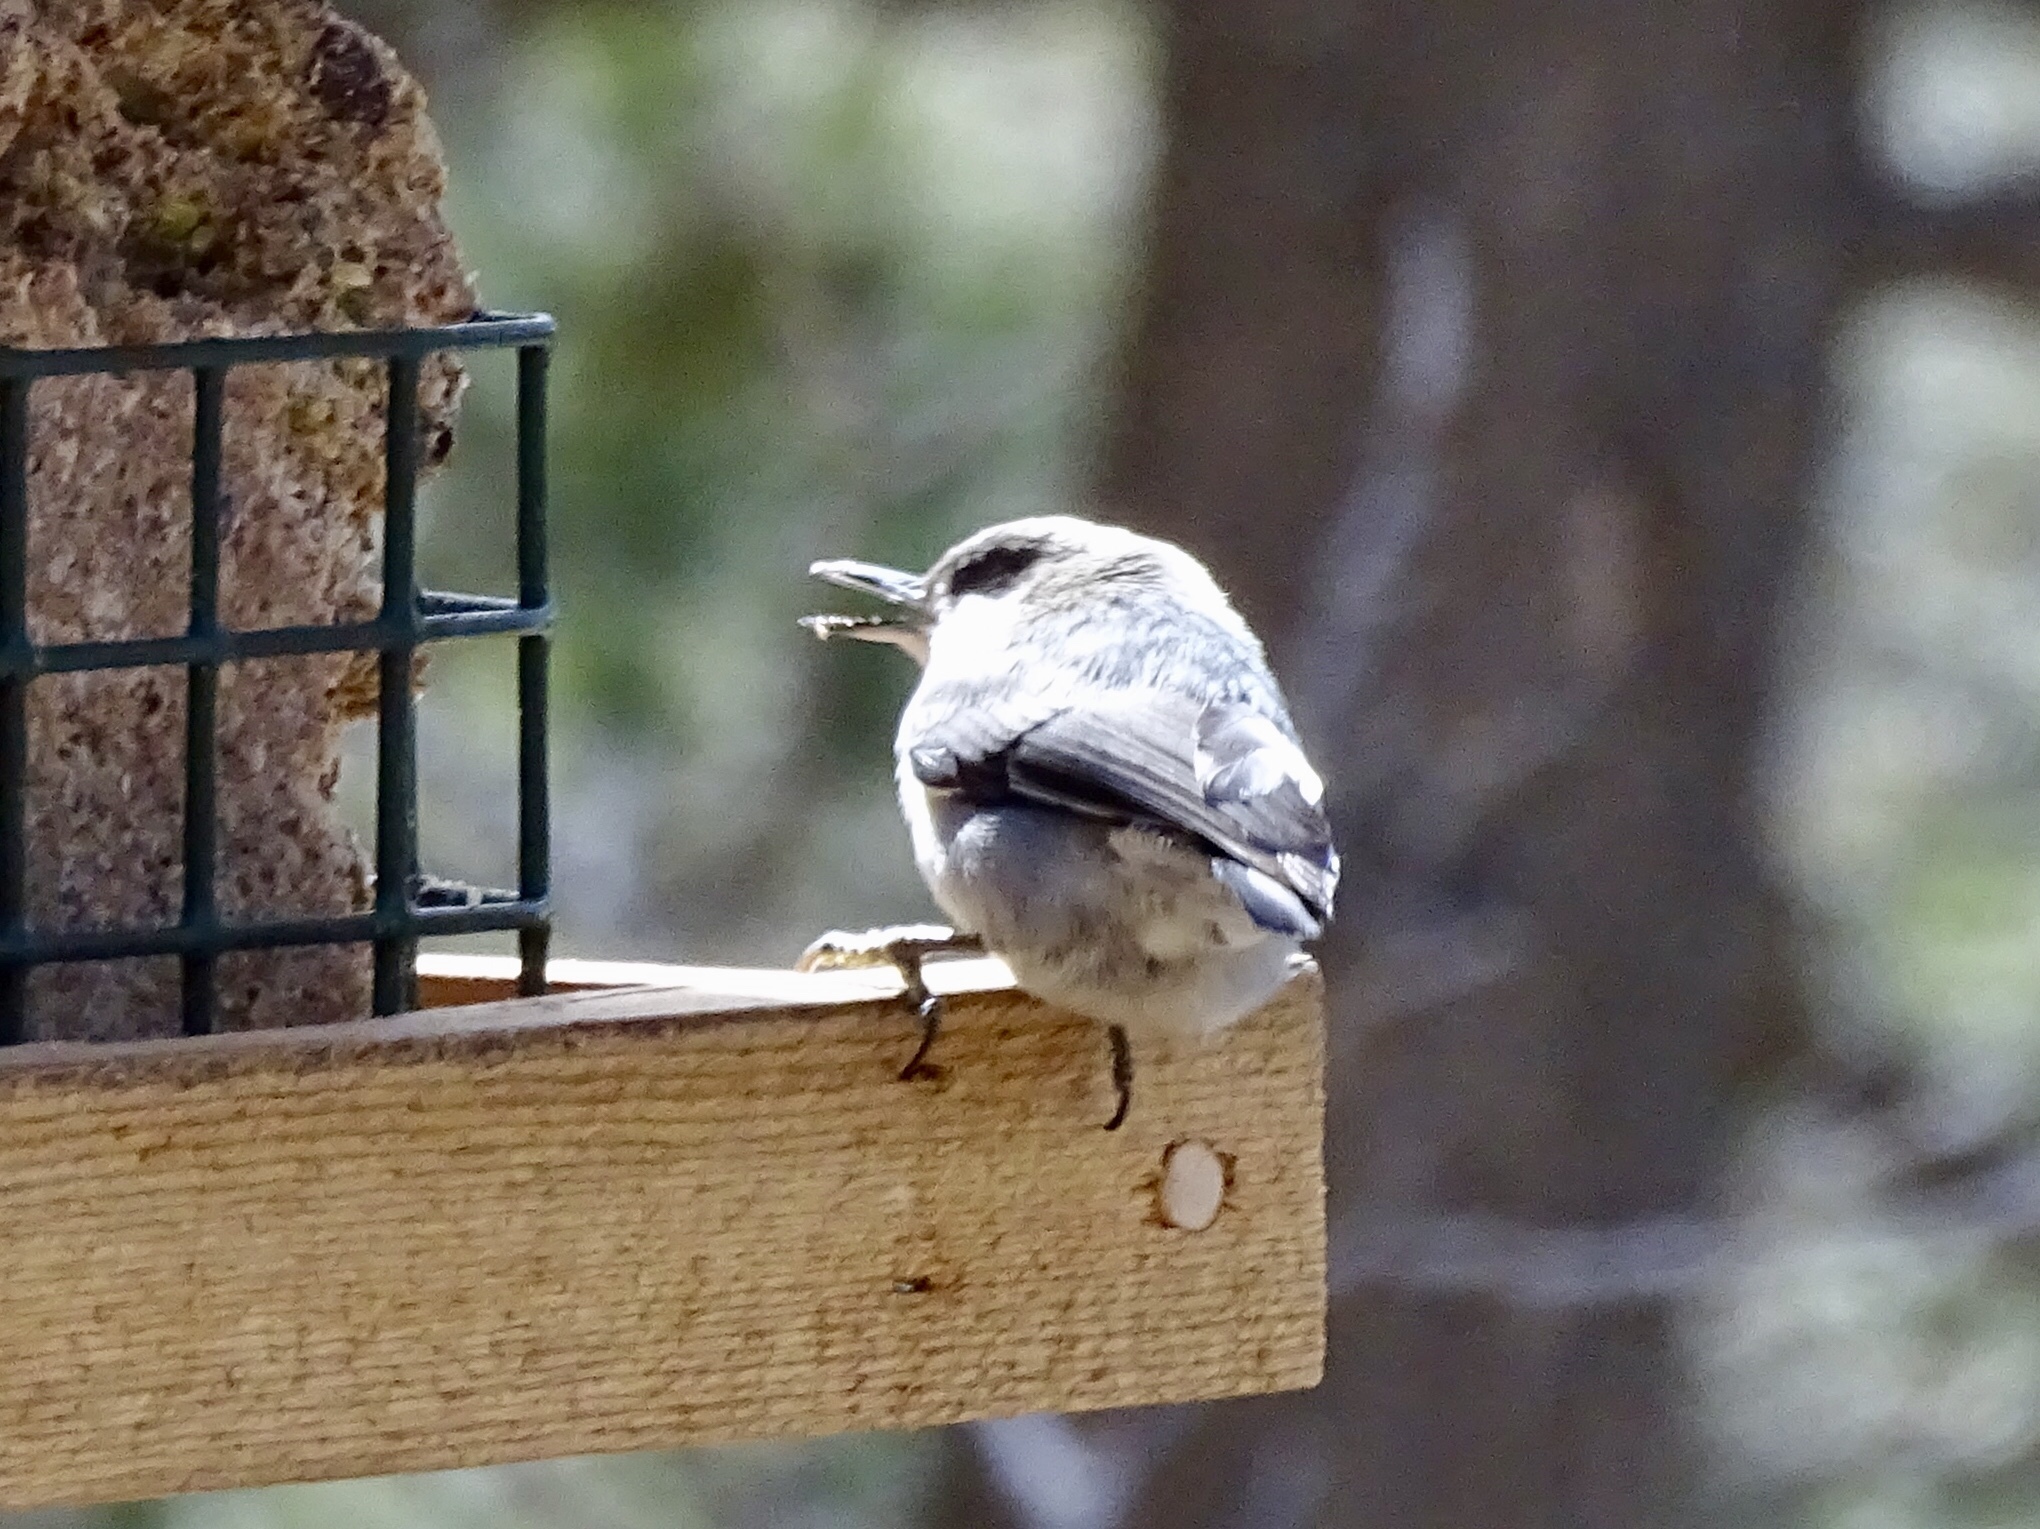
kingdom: Animalia
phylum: Chordata
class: Aves
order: Passeriformes
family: Sittidae
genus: Sitta
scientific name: Sitta pygmaea
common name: Pygmy nuthatch
